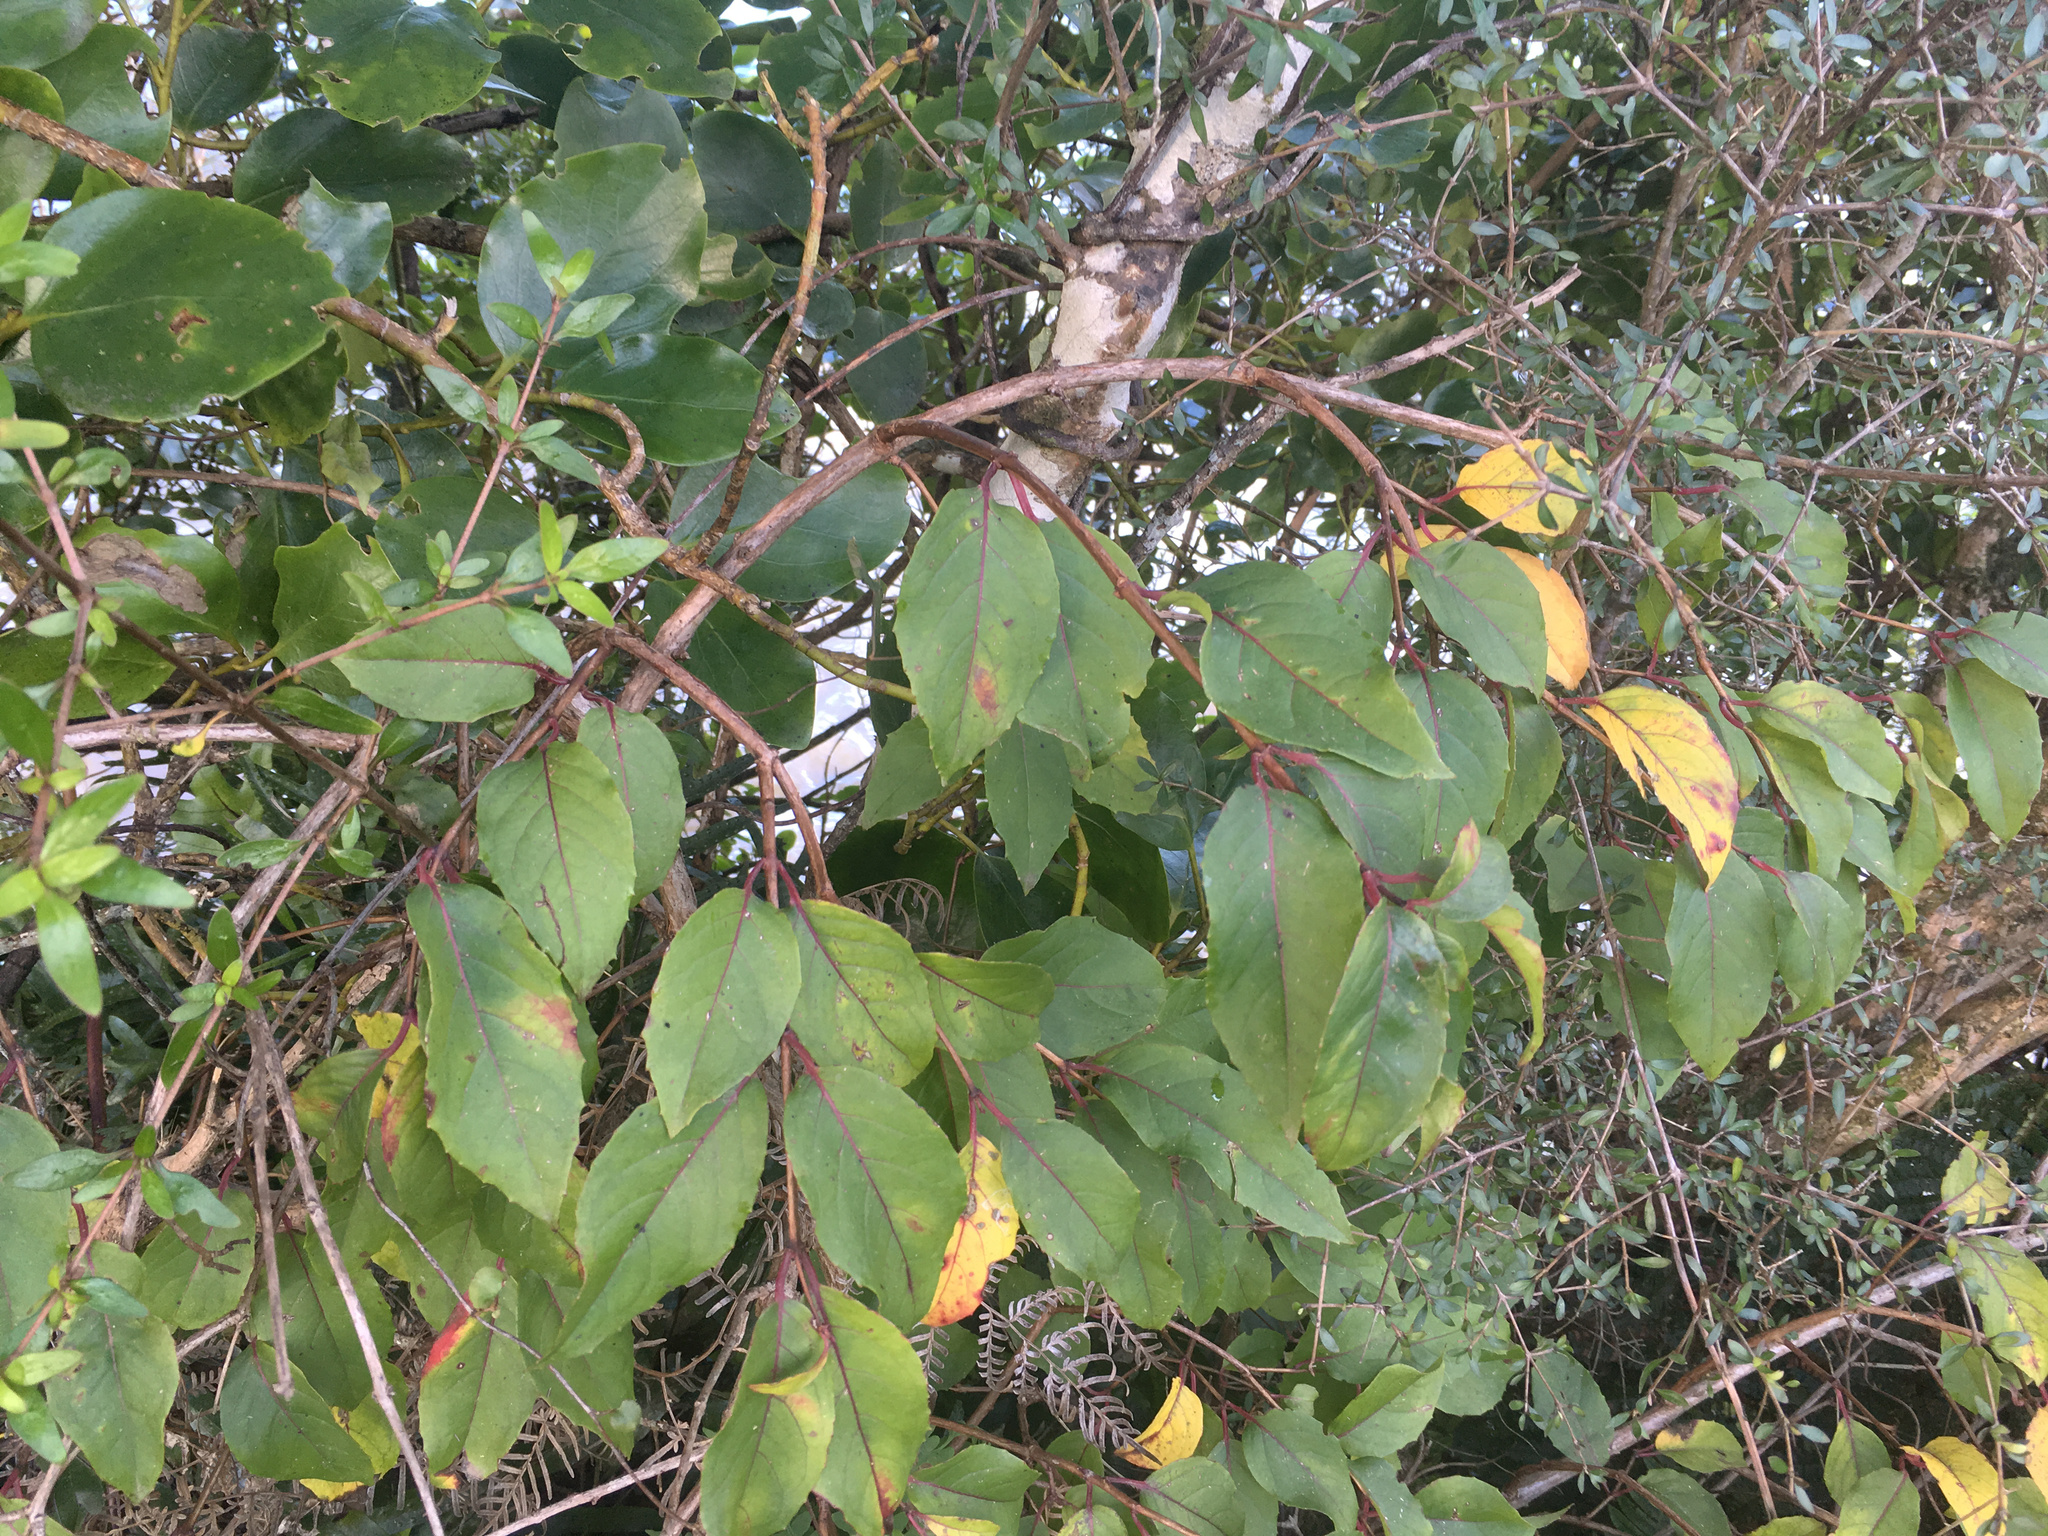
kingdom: Plantae
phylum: Tracheophyta
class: Magnoliopsida
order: Myrtales
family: Onagraceae
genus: Fuchsia
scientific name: Fuchsia magellanica
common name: Hardy fuchsia
